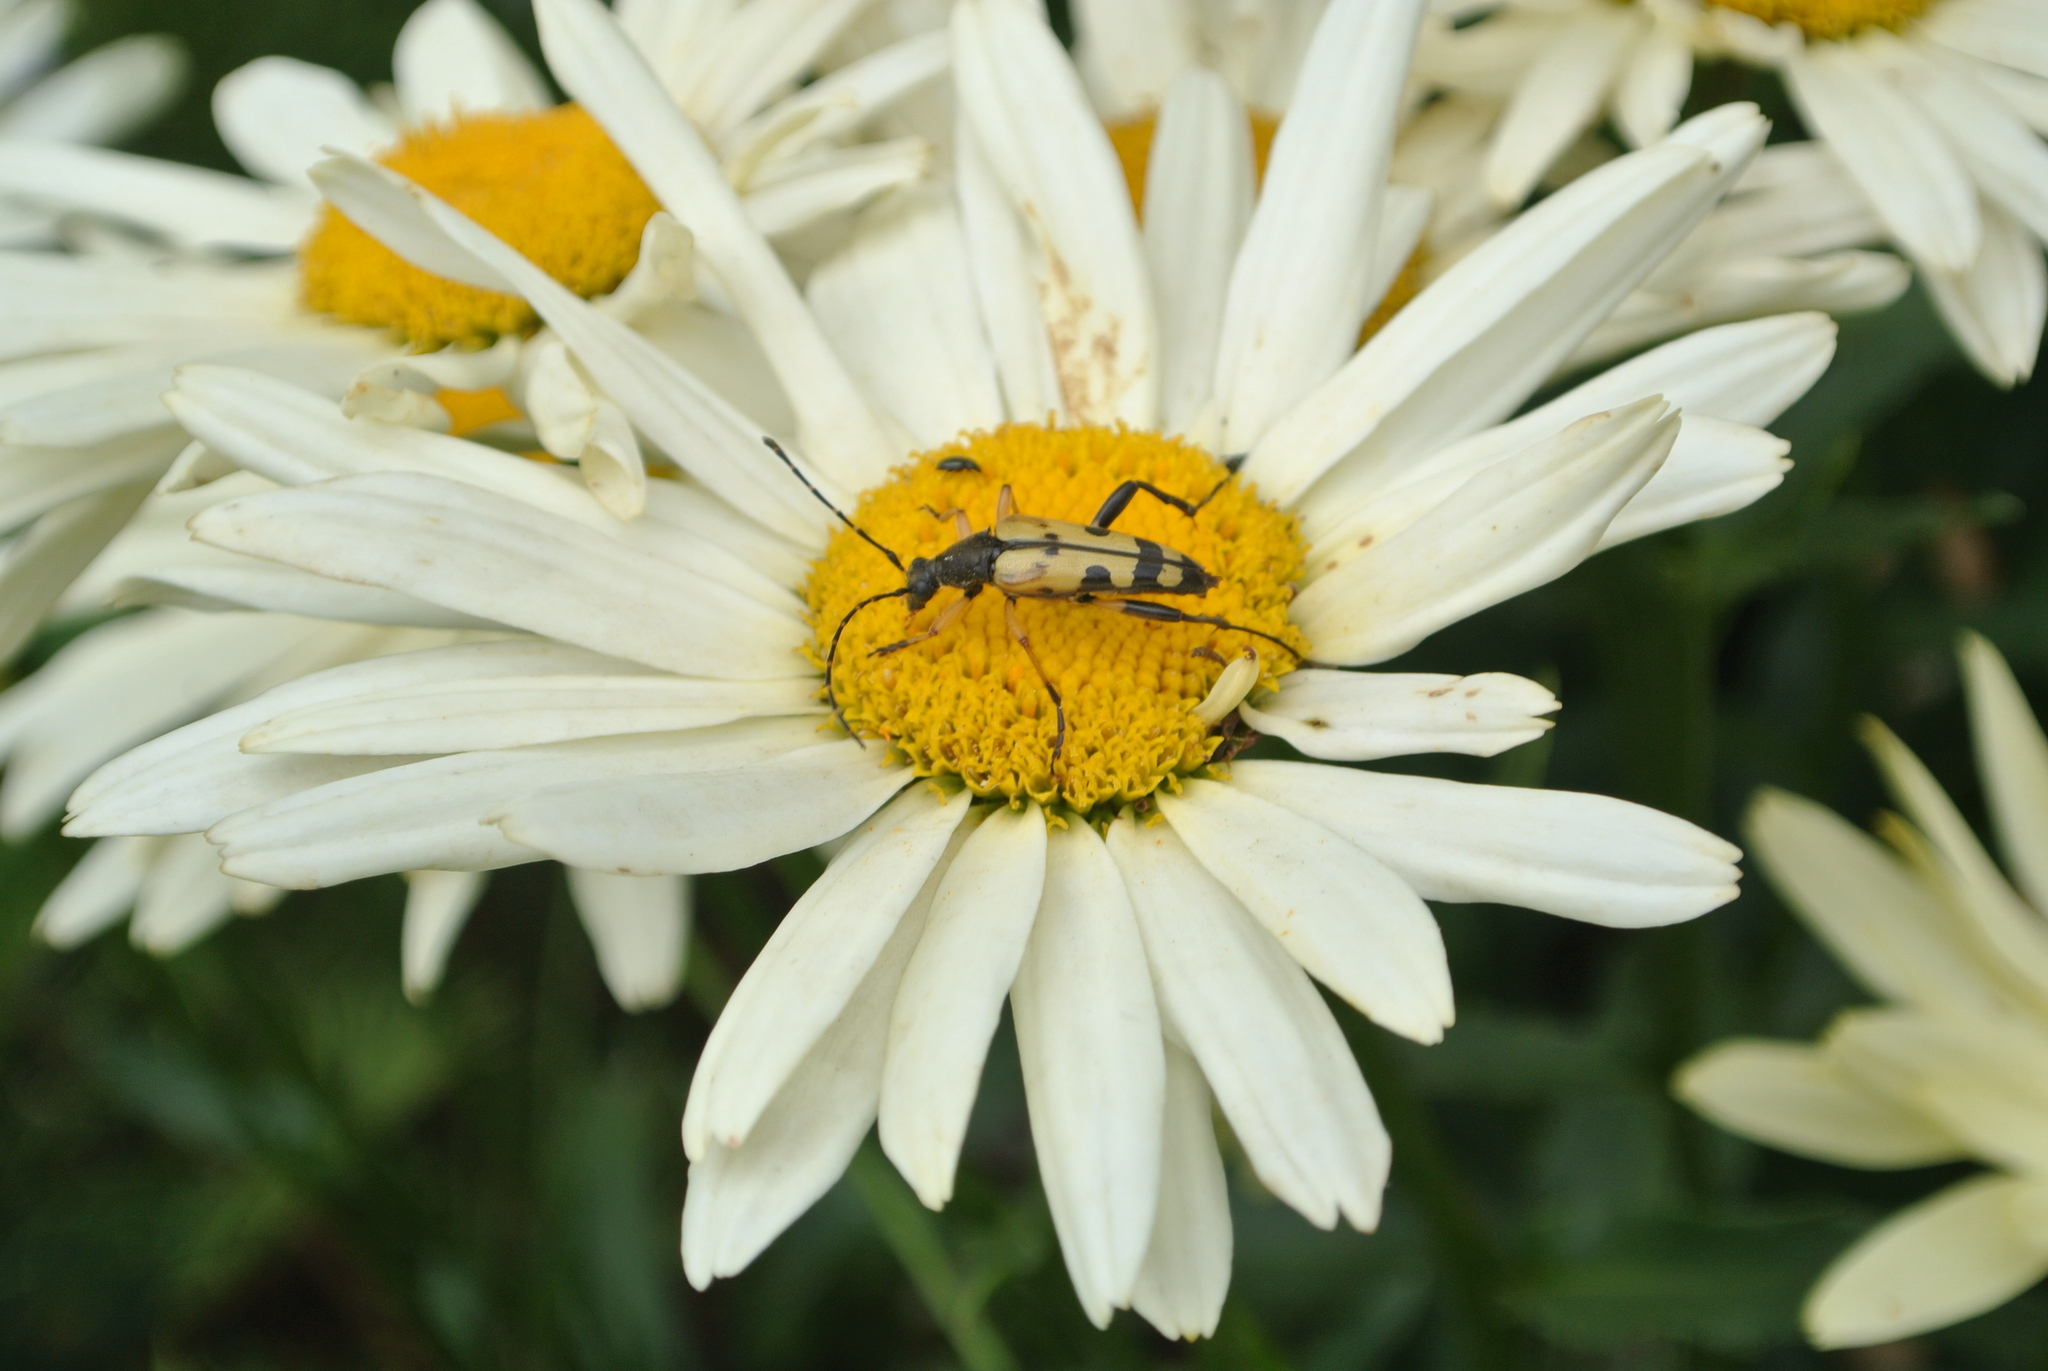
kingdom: Animalia
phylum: Arthropoda
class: Insecta
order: Coleoptera
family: Cerambycidae
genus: Rutpela
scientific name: Rutpela maculata
